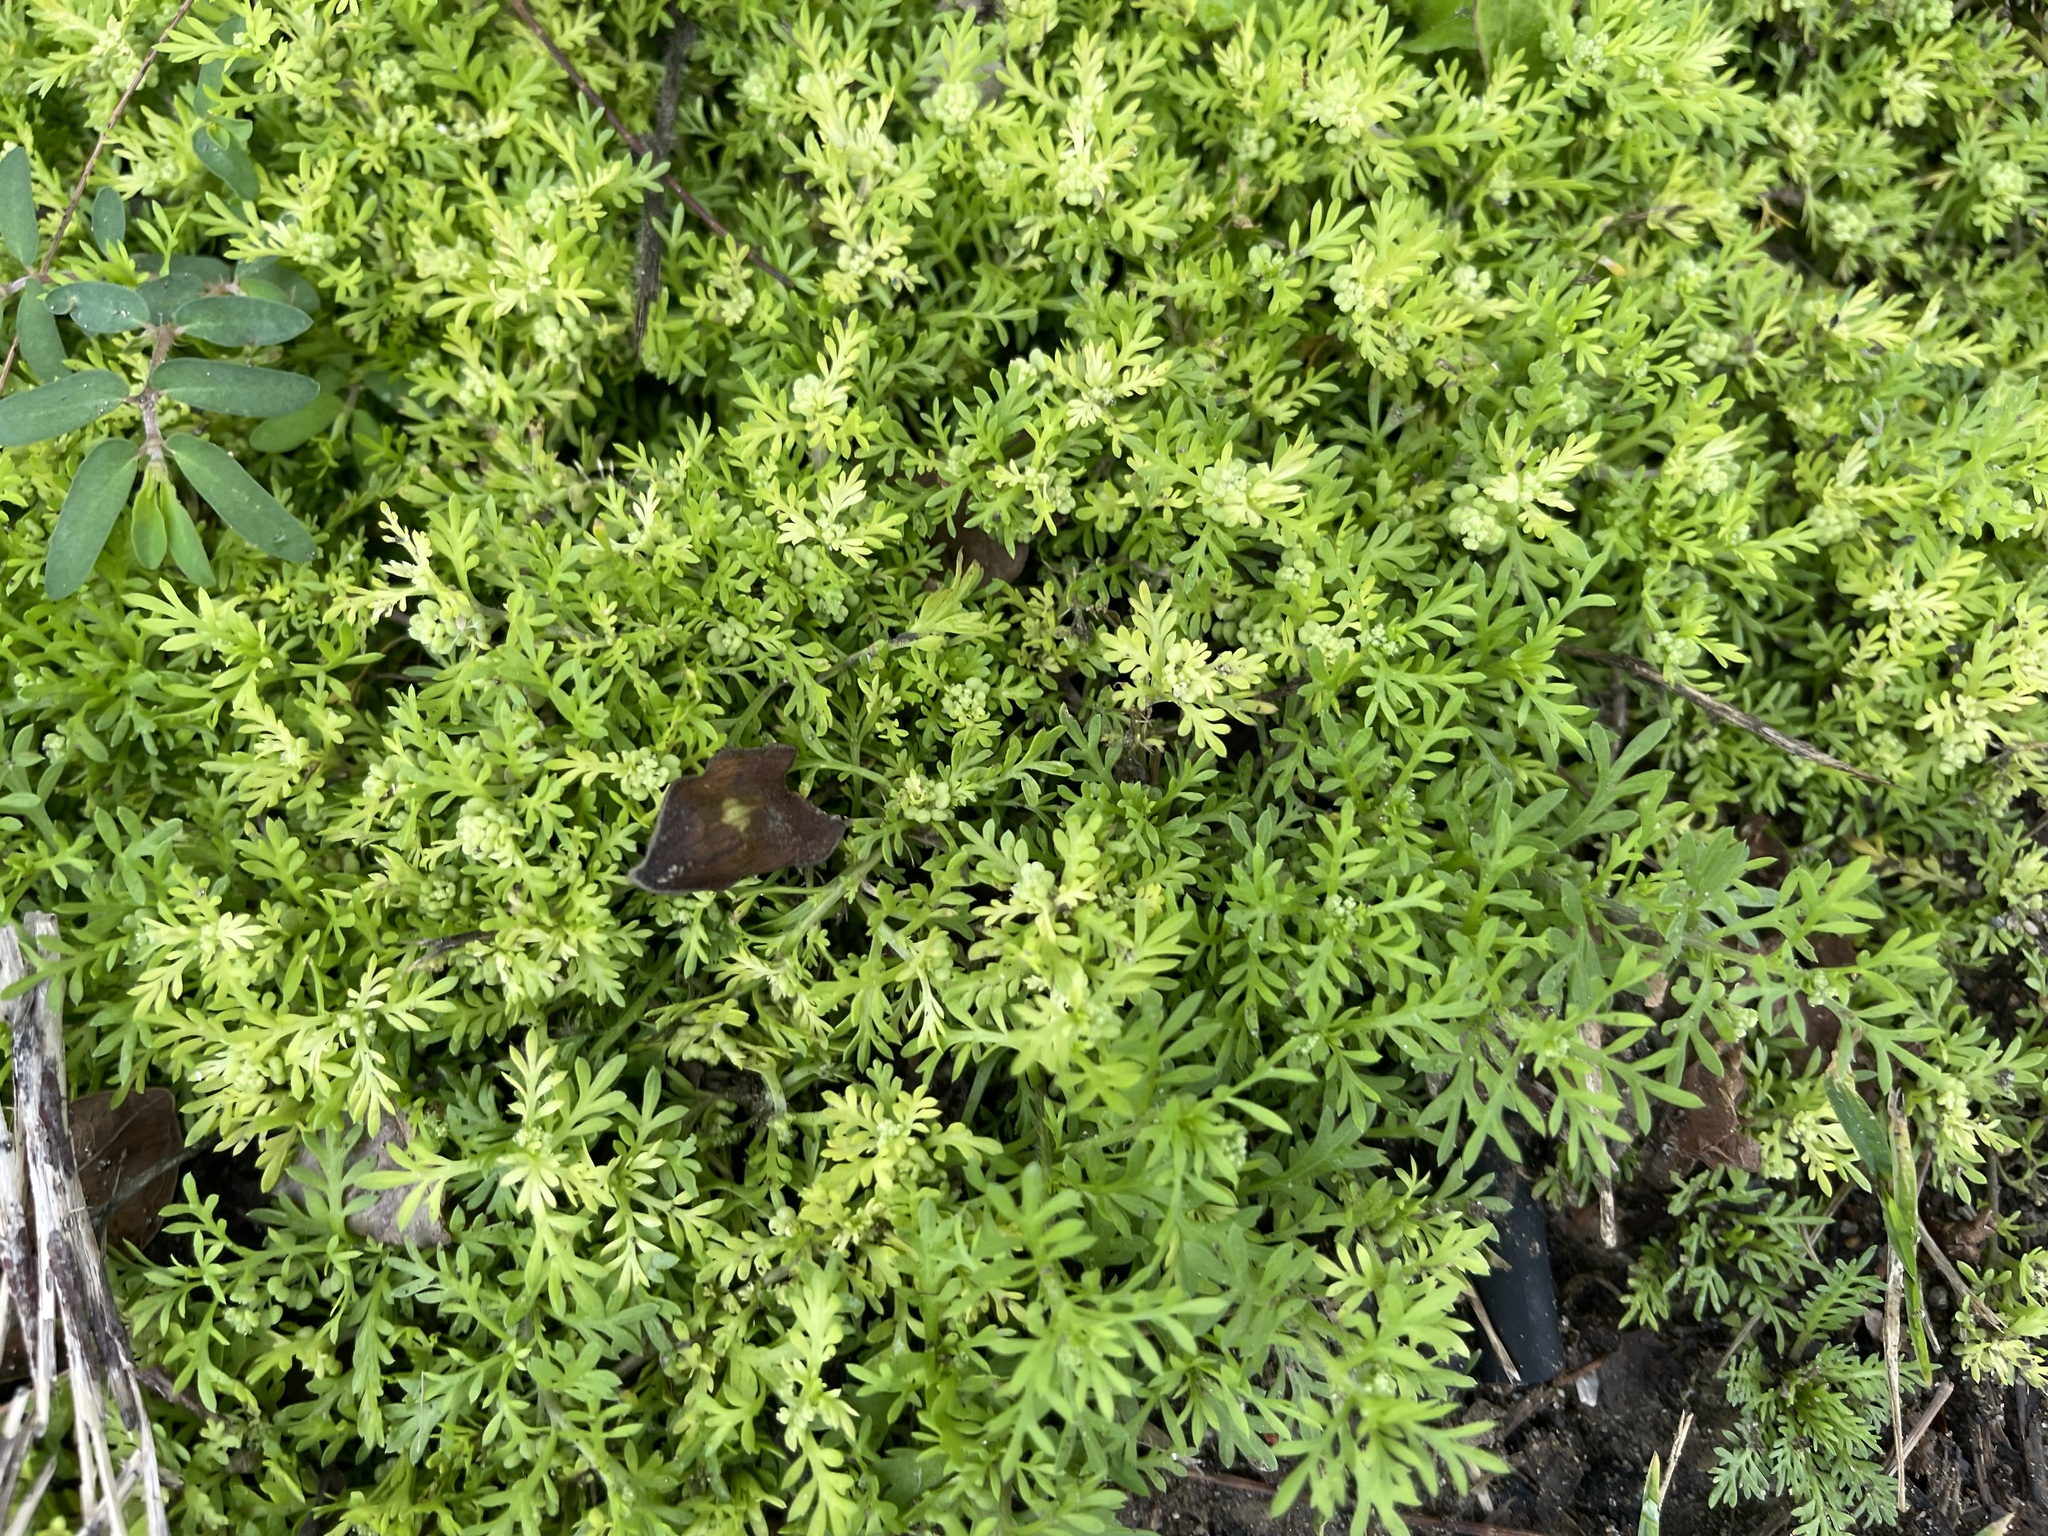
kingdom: Plantae
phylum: Tracheophyta
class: Magnoliopsida
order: Brassicales
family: Brassicaceae
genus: Lepidium
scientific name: Lepidium didymum
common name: Lesser swinecress
